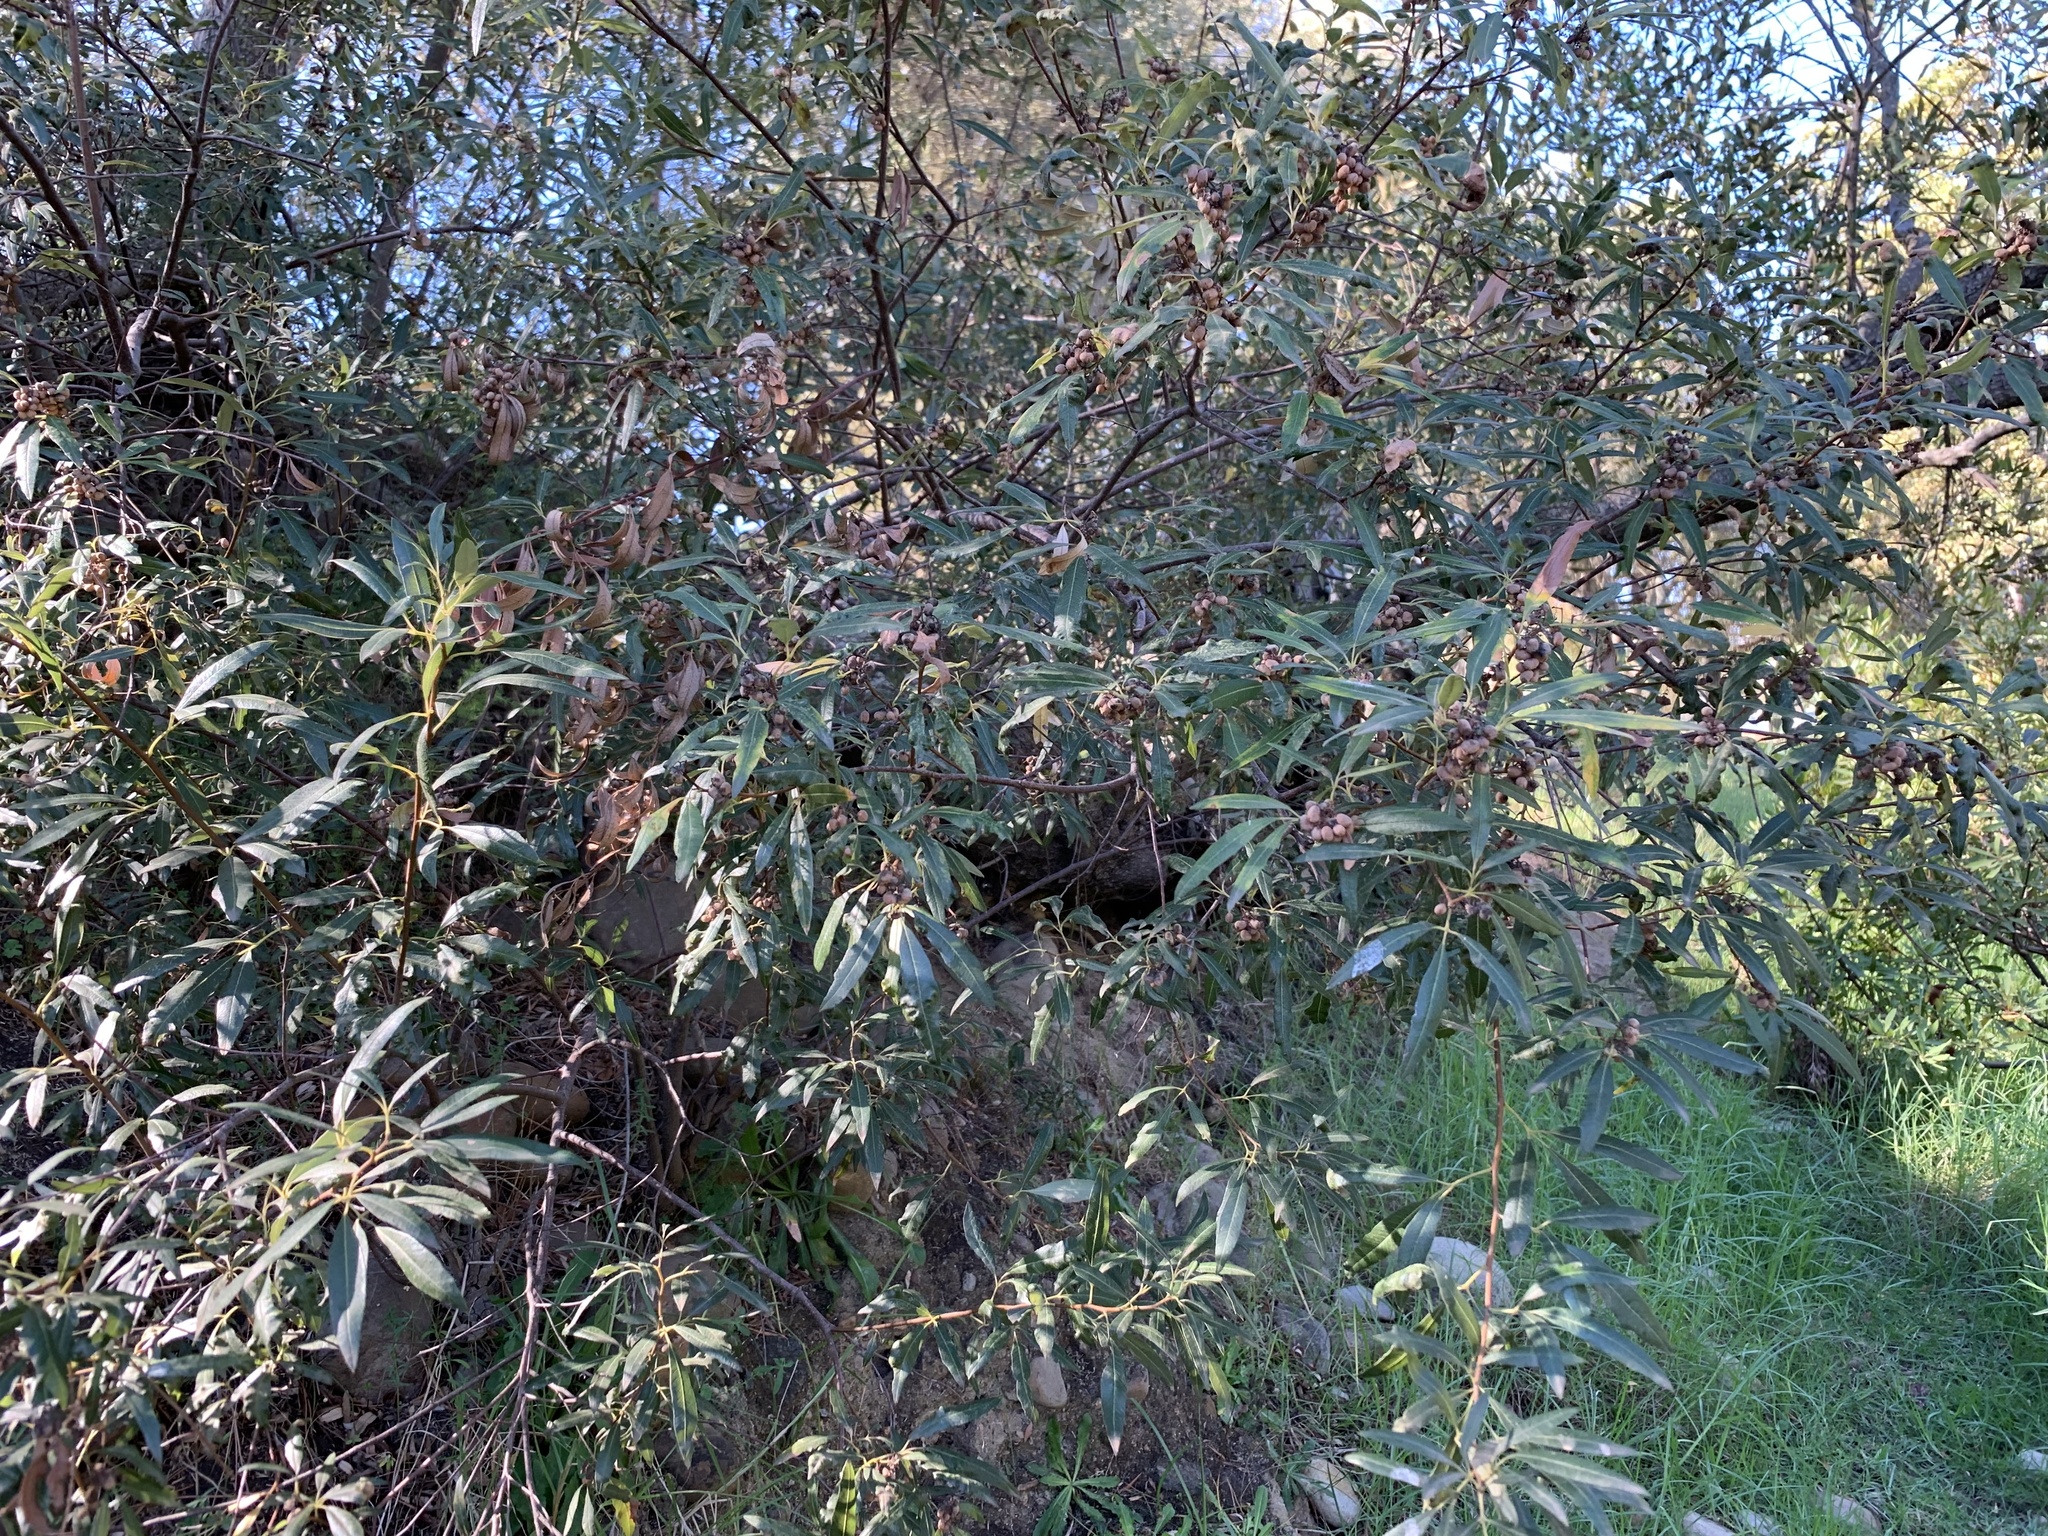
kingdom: Plantae
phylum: Tracheophyta
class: Magnoliopsida
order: Sapindales
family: Anacardiaceae
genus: Searsia
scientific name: Searsia angustifolia
